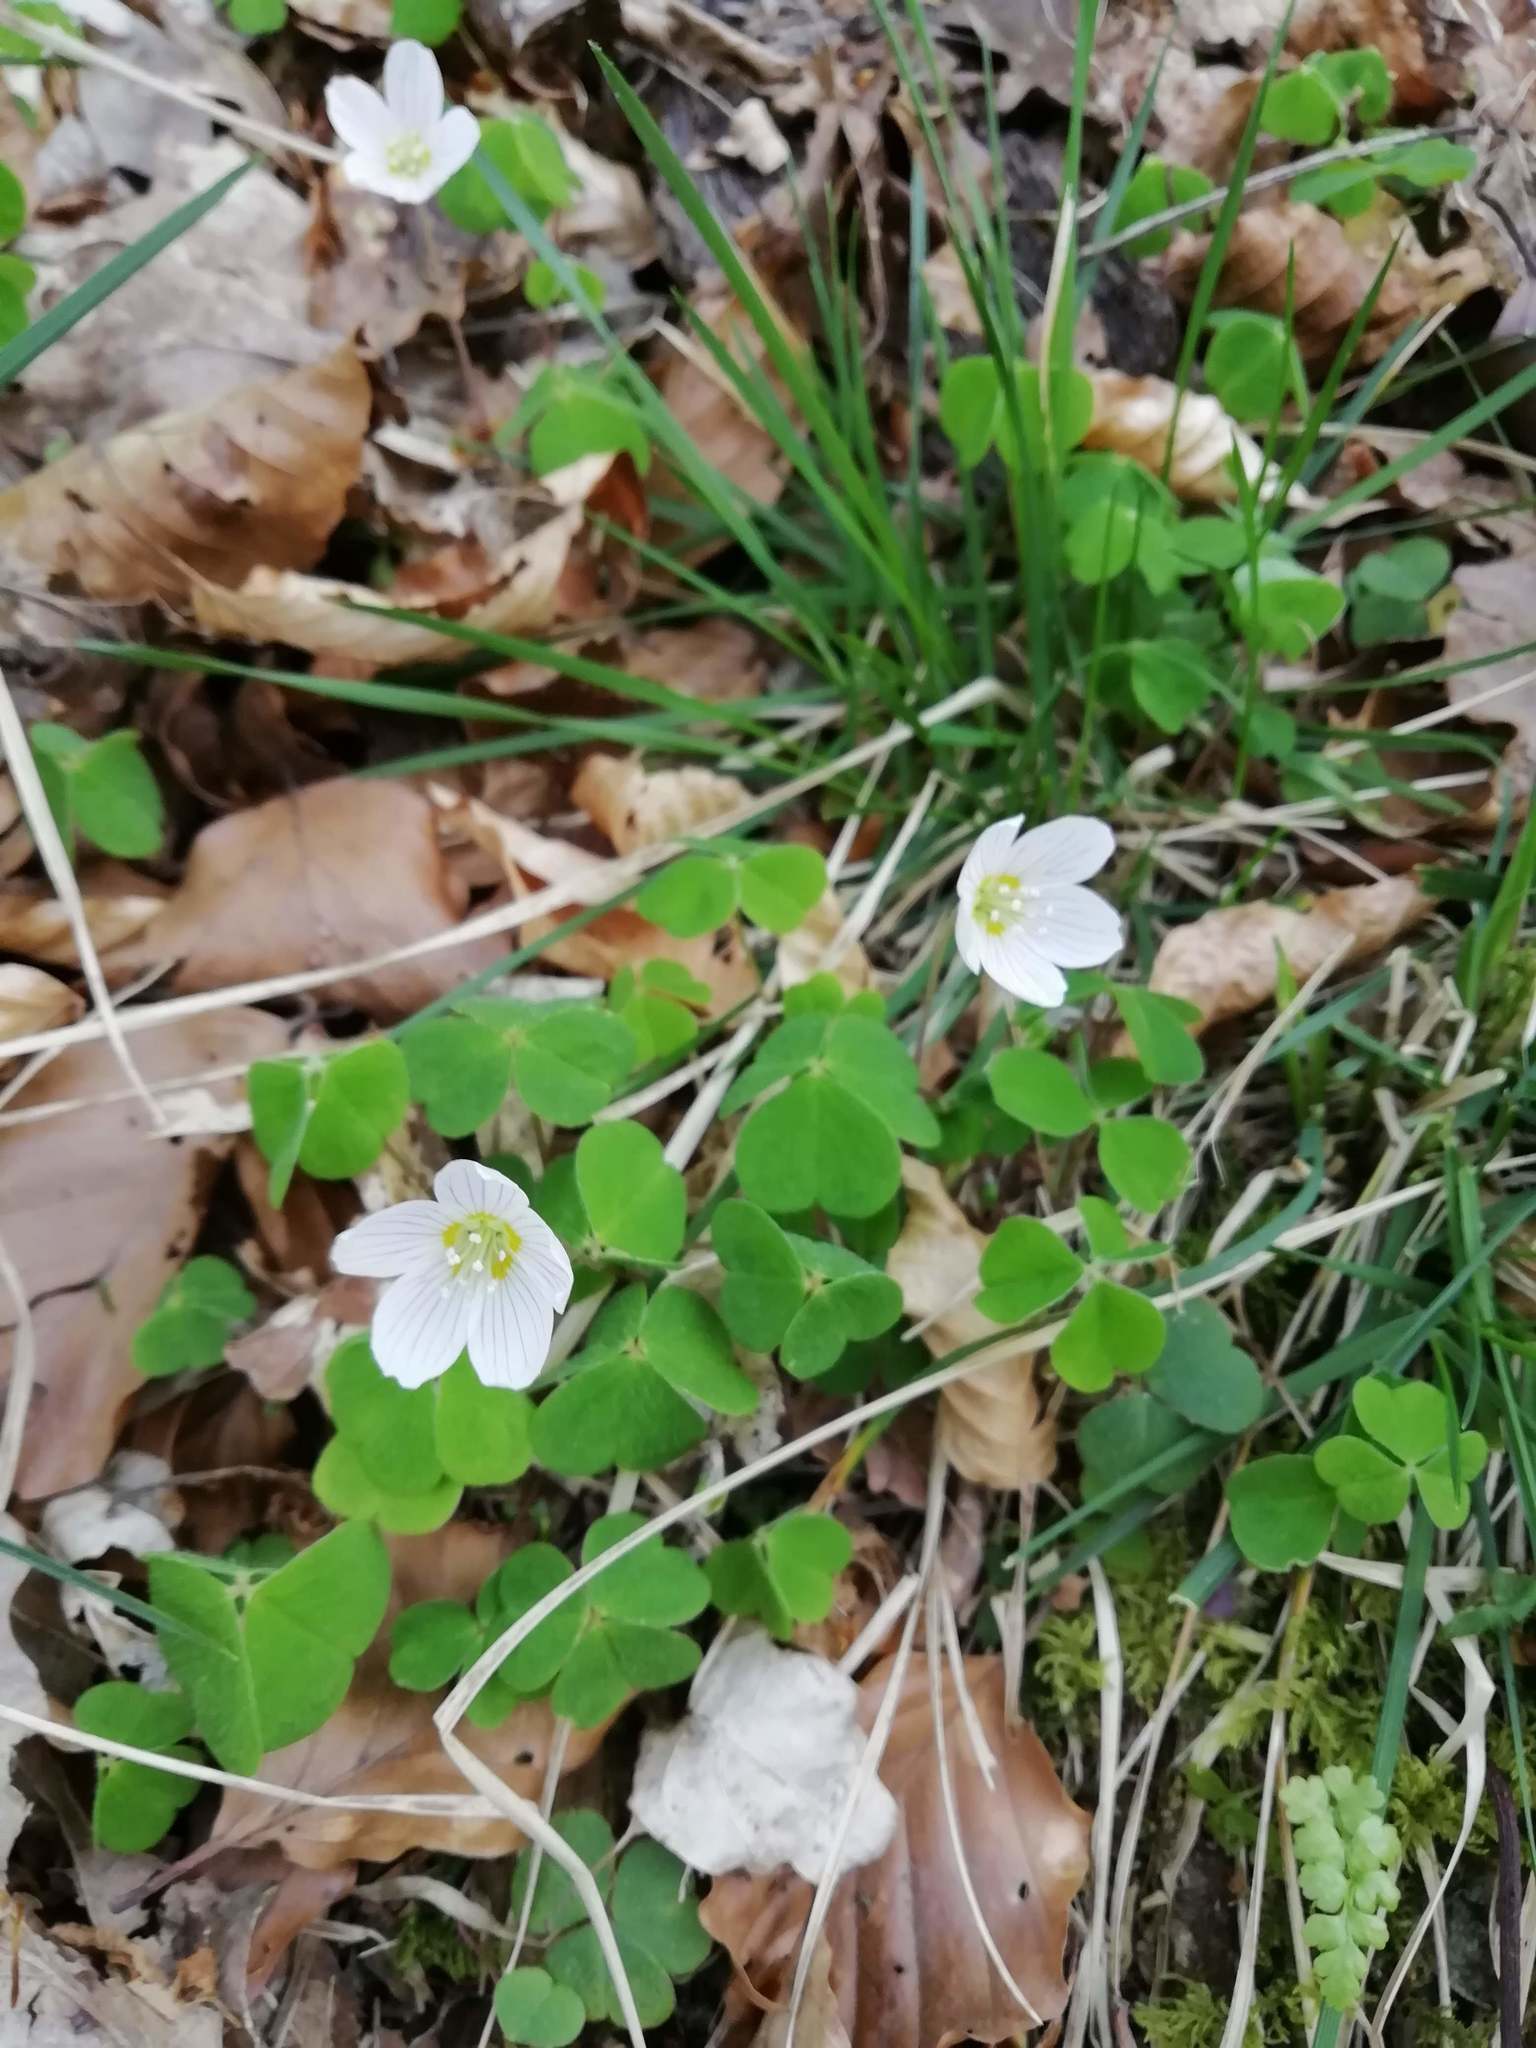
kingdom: Plantae
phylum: Tracheophyta
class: Magnoliopsida
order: Oxalidales
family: Oxalidaceae
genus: Oxalis
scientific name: Oxalis acetosella
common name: Wood-sorrel
